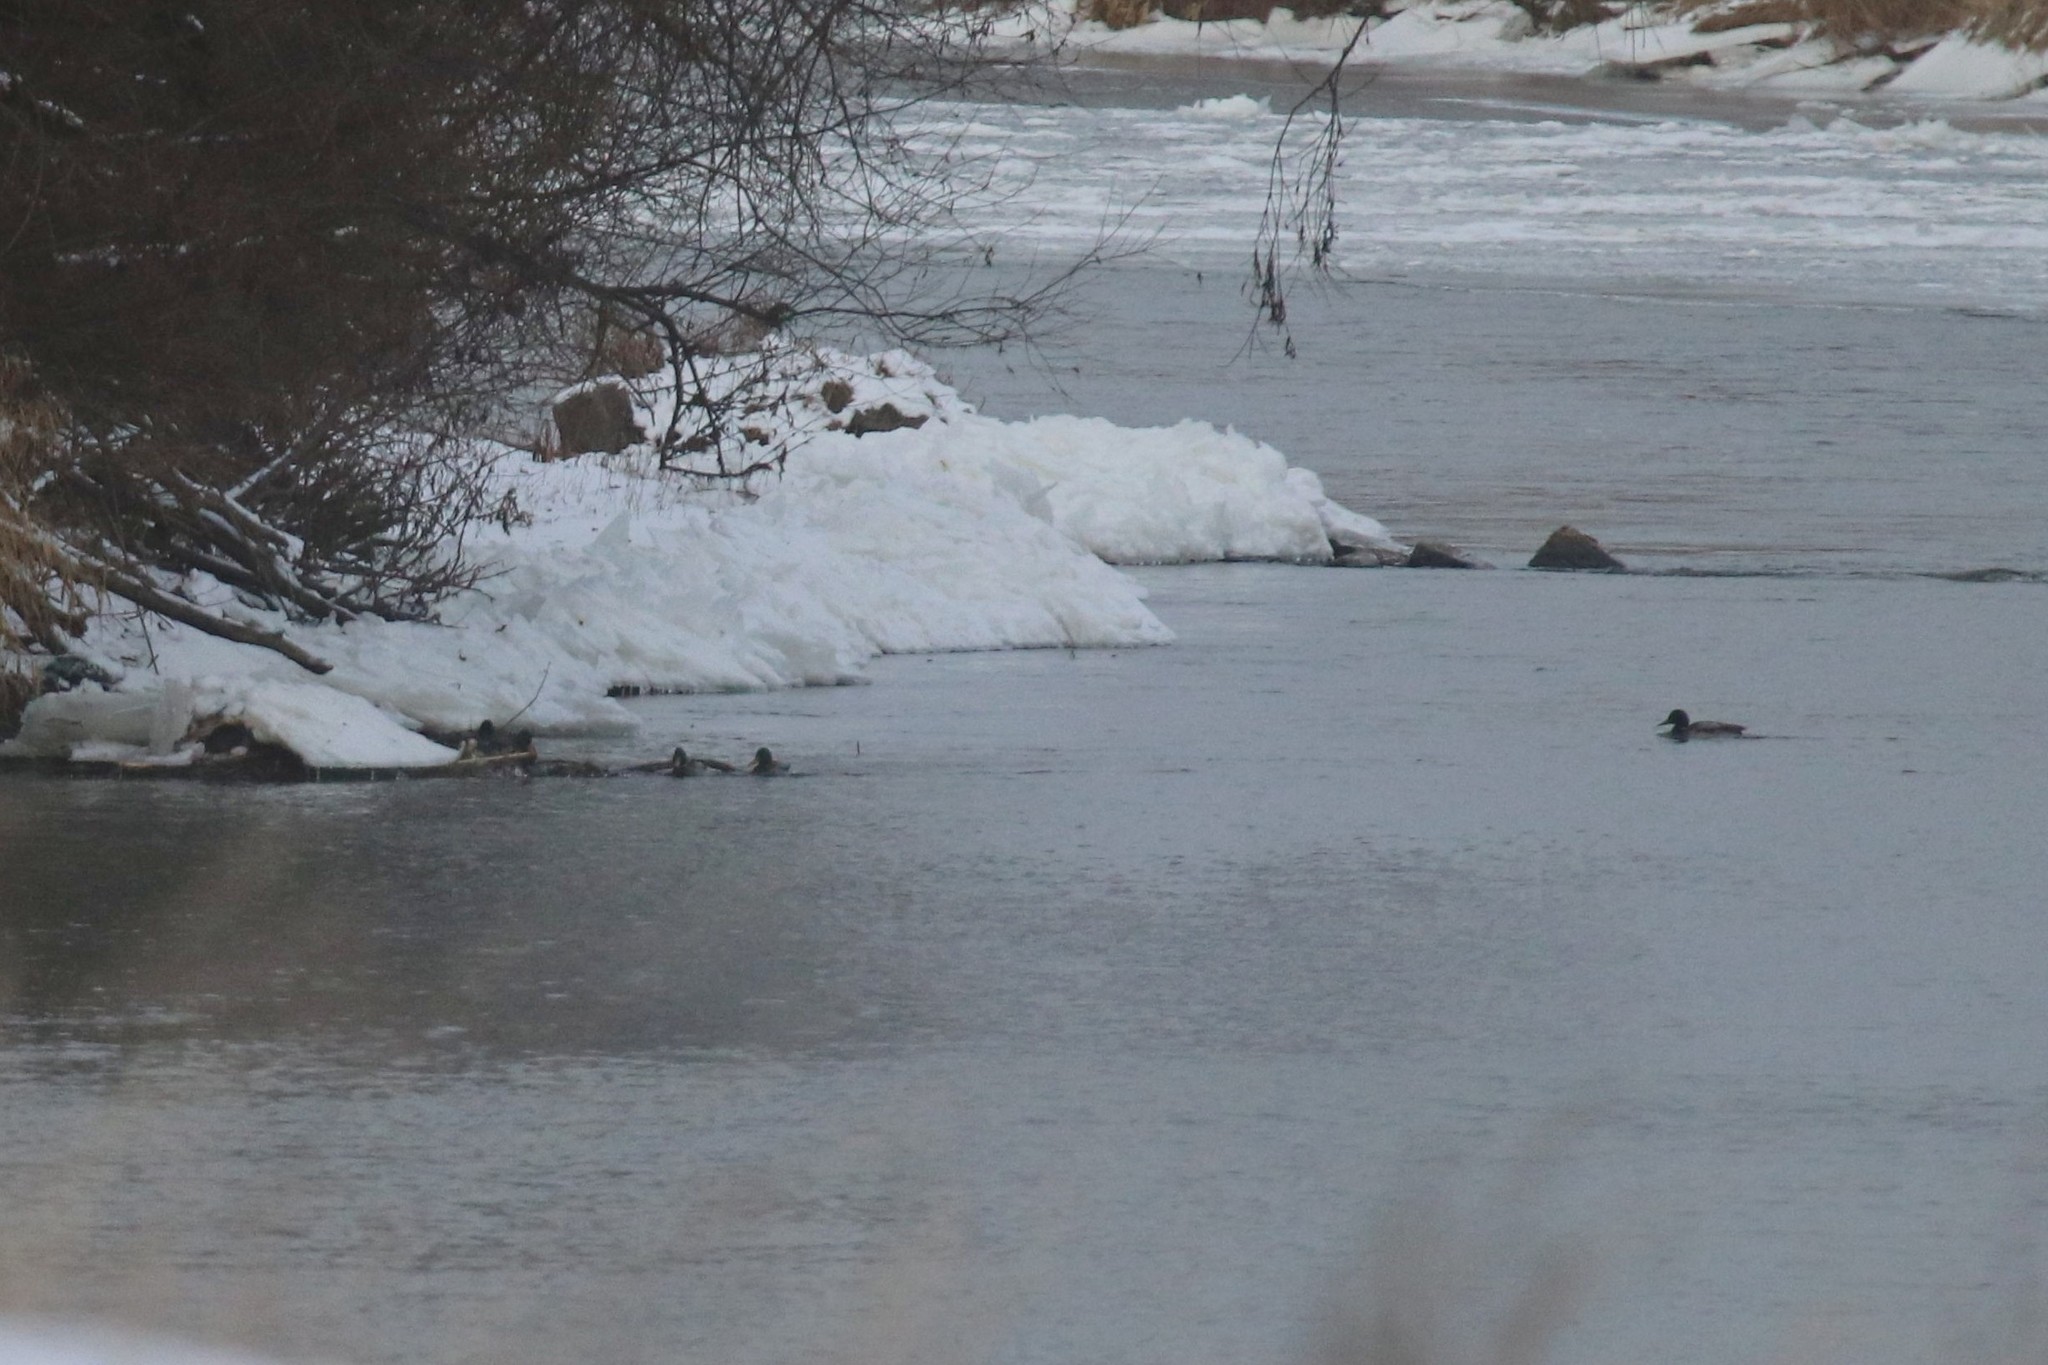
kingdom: Animalia
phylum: Chordata
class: Aves
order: Anseriformes
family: Anatidae
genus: Anas
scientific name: Anas platyrhynchos
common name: Mallard
